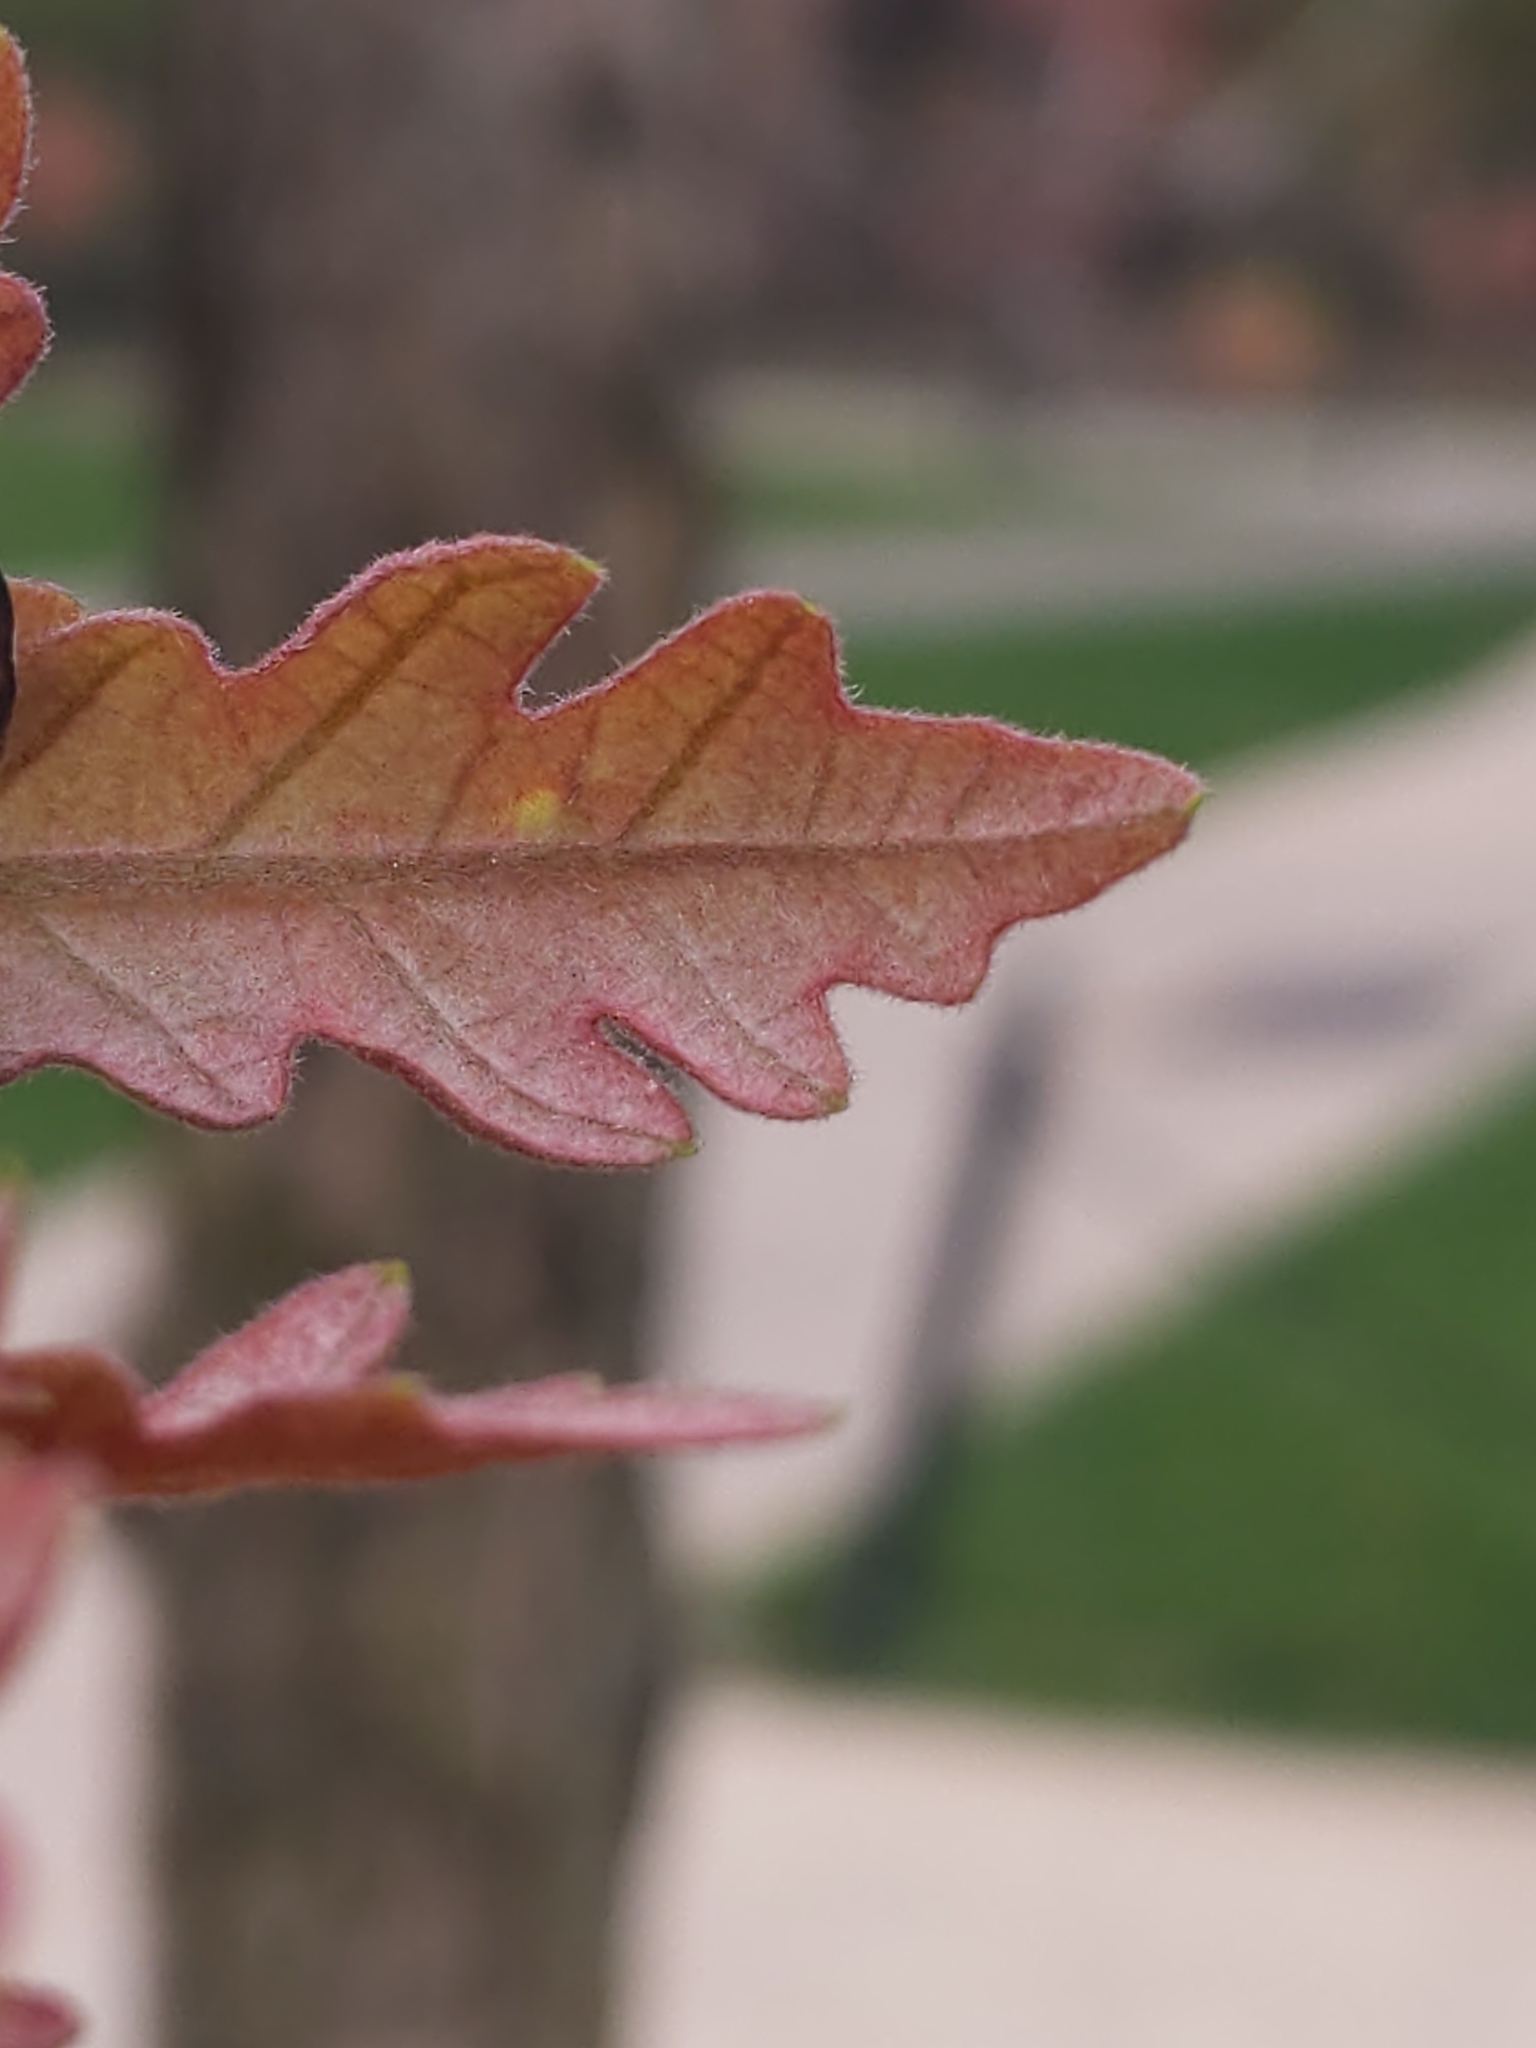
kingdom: Animalia
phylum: Arthropoda
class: Arachnida
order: Trombidiformes
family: Eriophyidae
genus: Aceria
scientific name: Aceria
